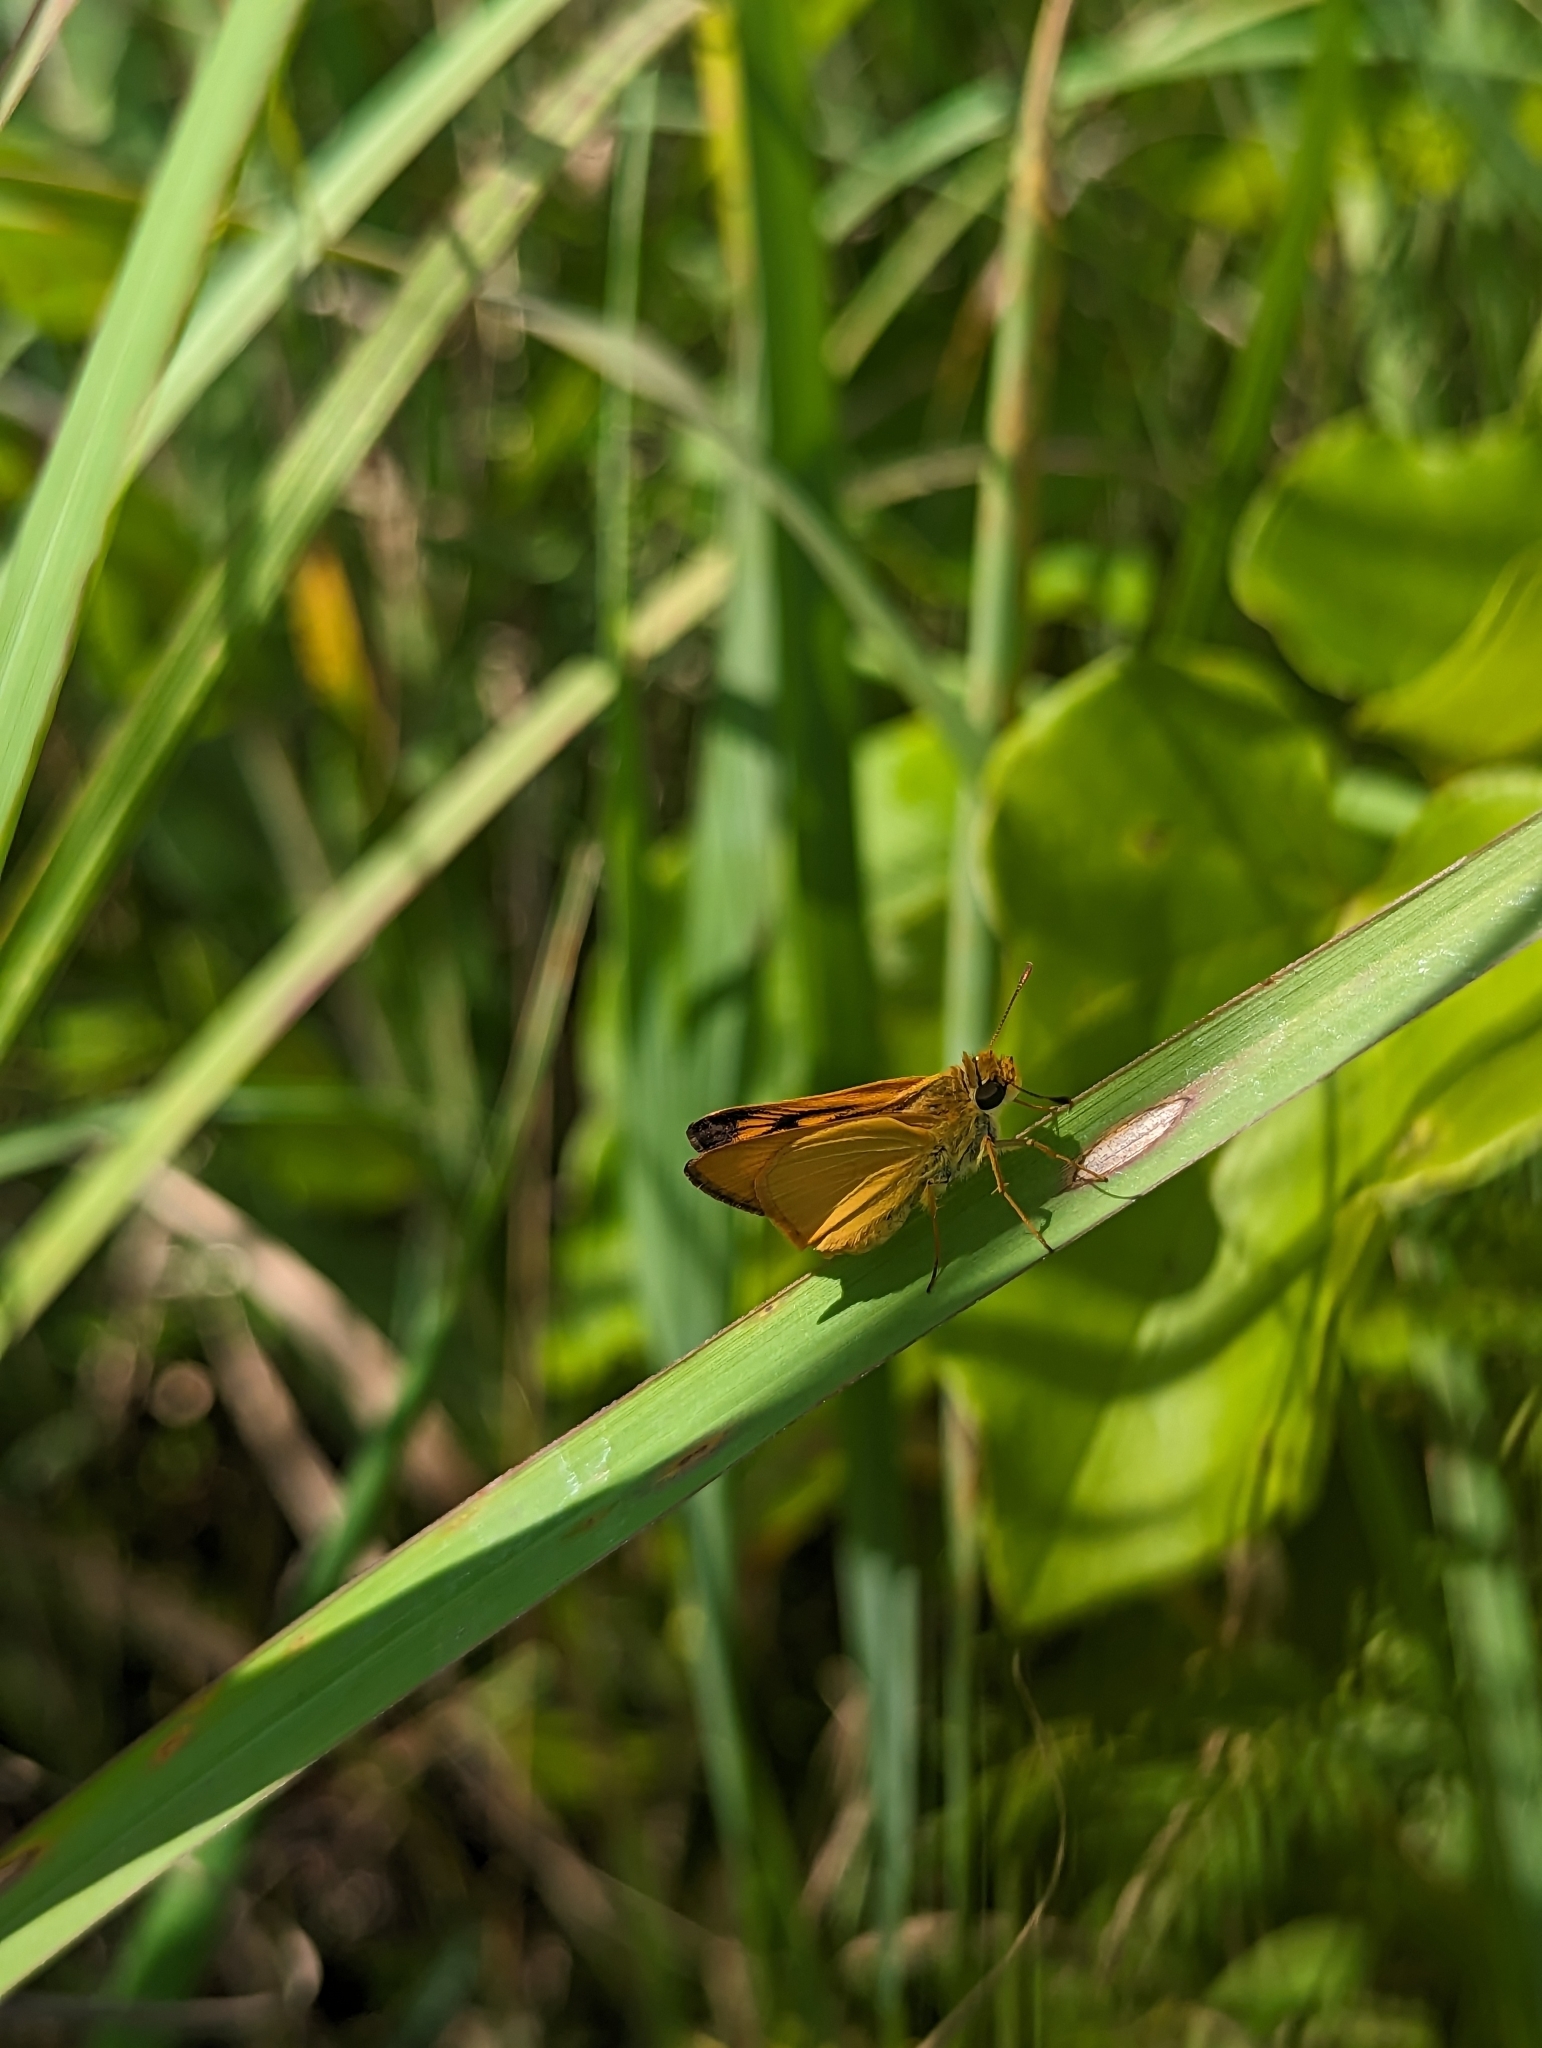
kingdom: Animalia
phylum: Arthropoda
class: Insecta
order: Lepidoptera
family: Hesperiidae
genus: Atrytone
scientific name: Atrytone delaware
